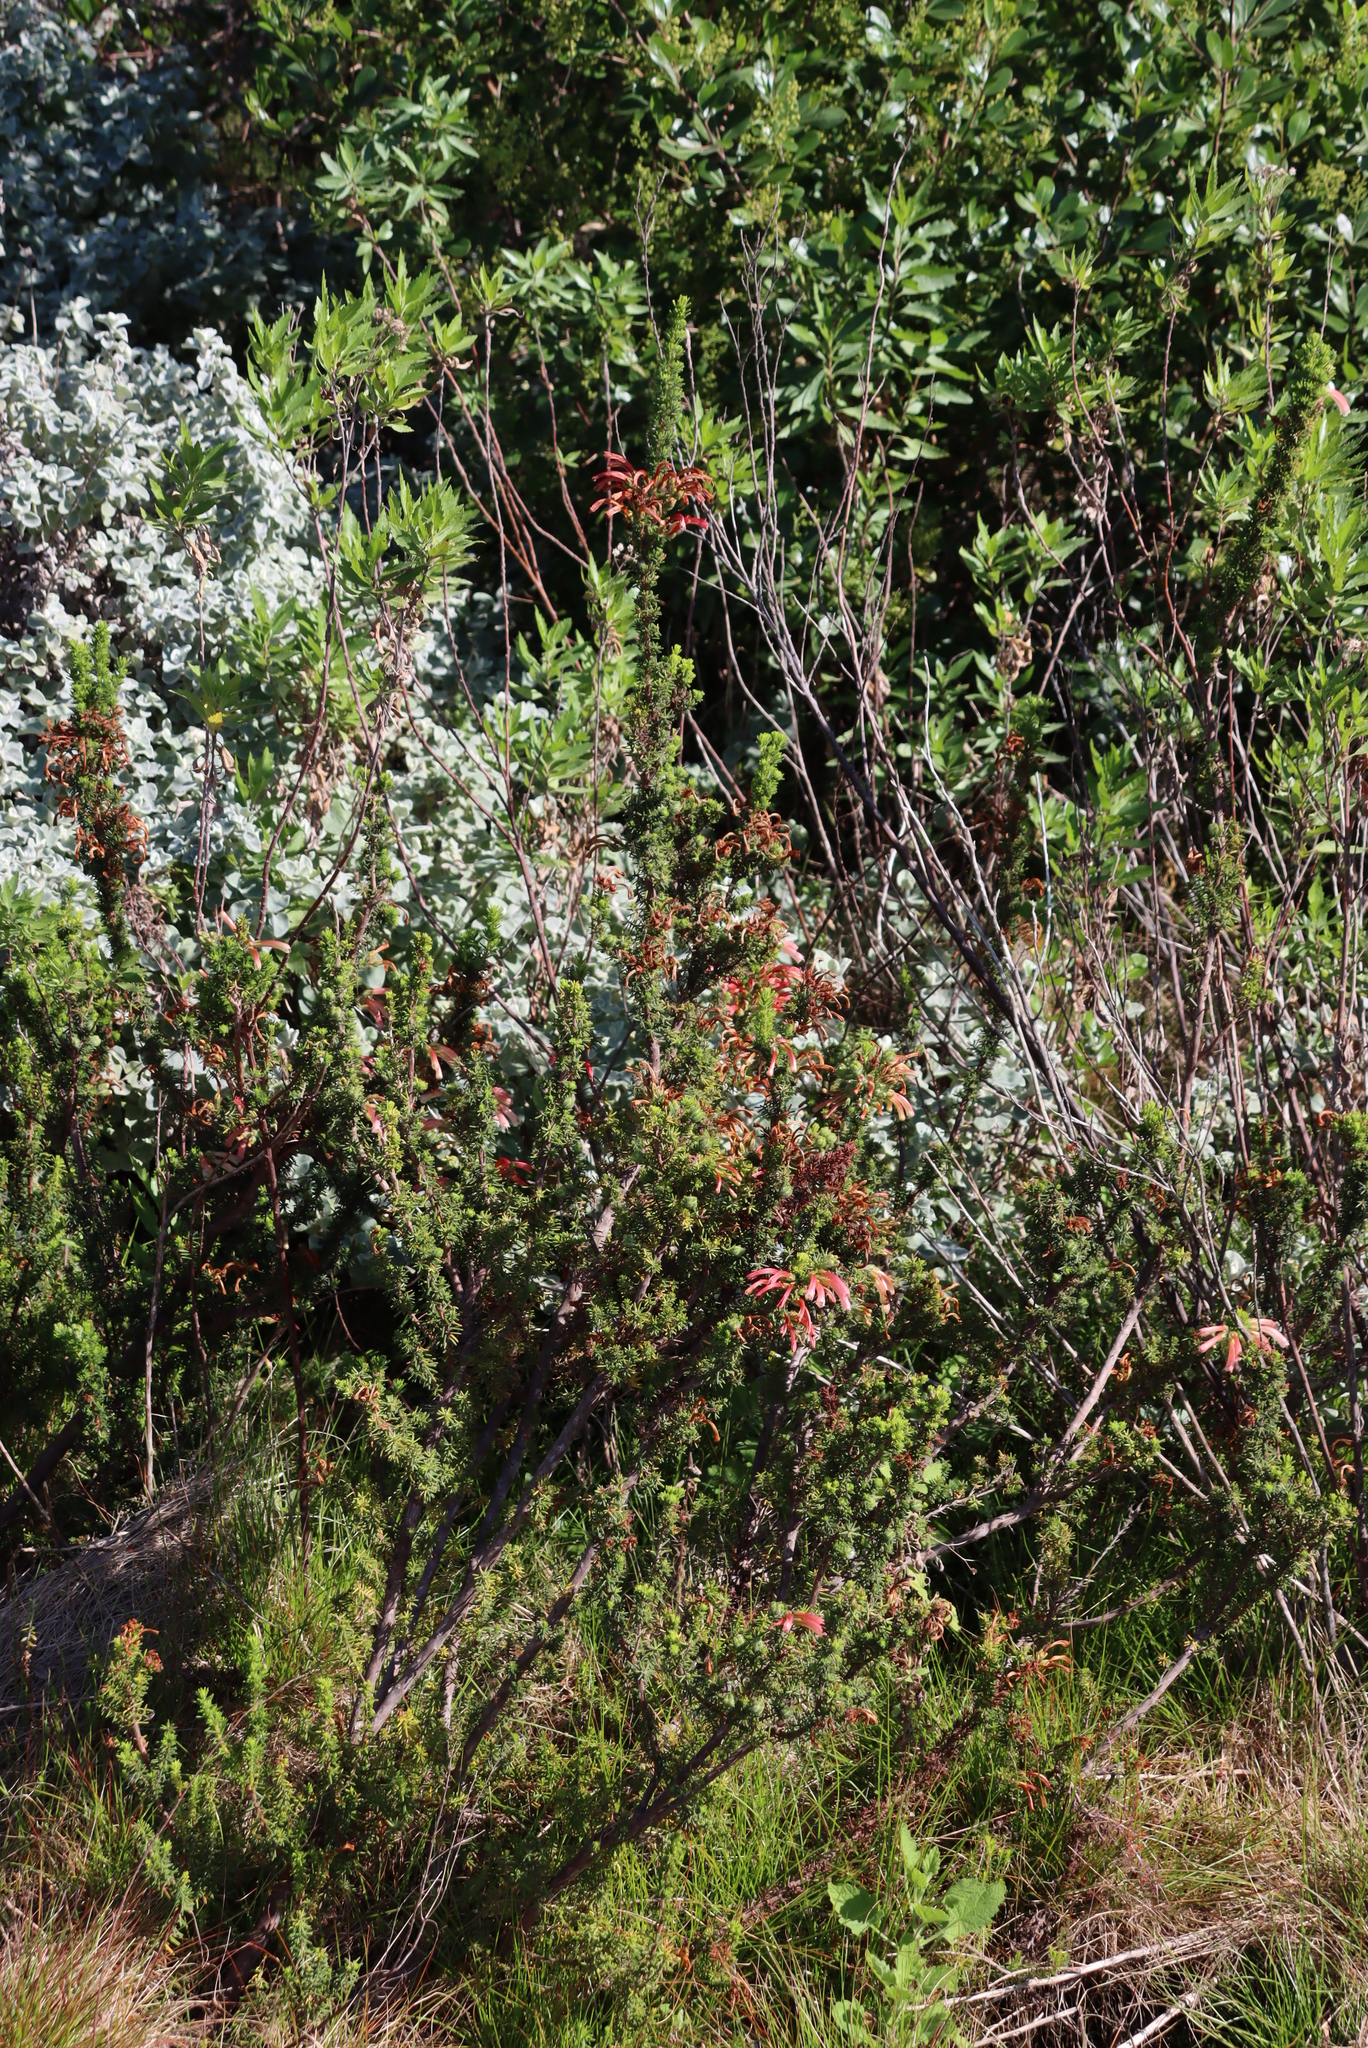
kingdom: Plantae
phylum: Tracheophyta
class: Magnoliopsida
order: Ericales
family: Ericaceae
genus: Erica
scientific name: Erica glandulosa
